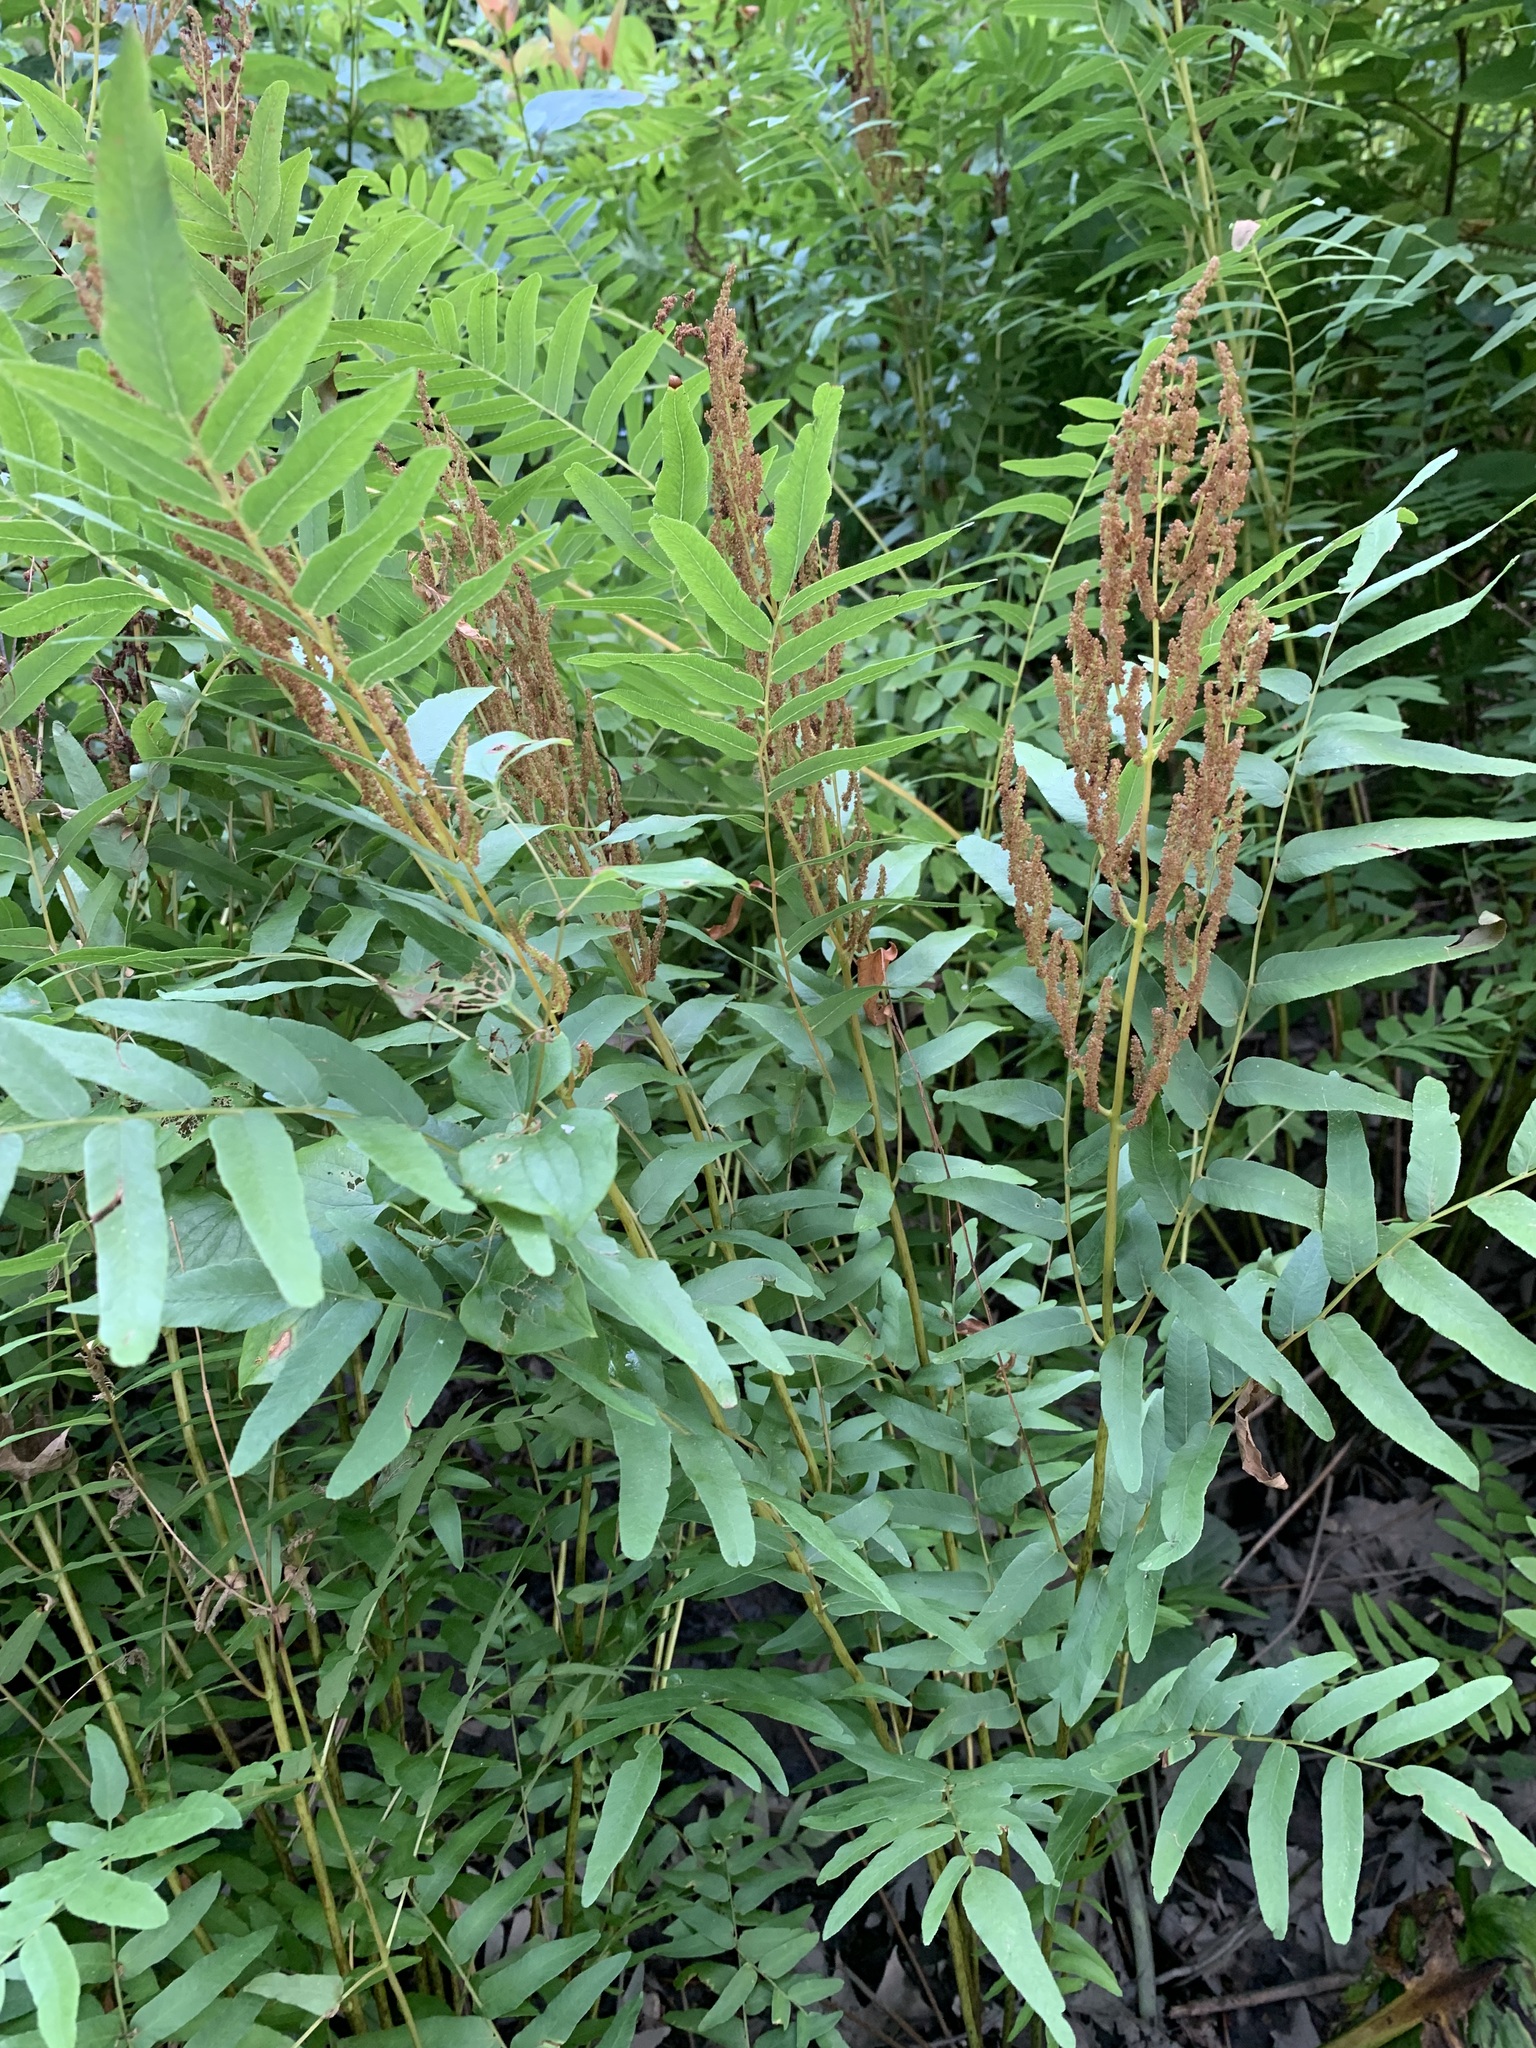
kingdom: Plantae
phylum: Tracheophyta
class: Polypodiopsida
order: Osmundales
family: Osmundaceae
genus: Osmunda
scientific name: Osmunda spectabilis
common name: American royal fern
